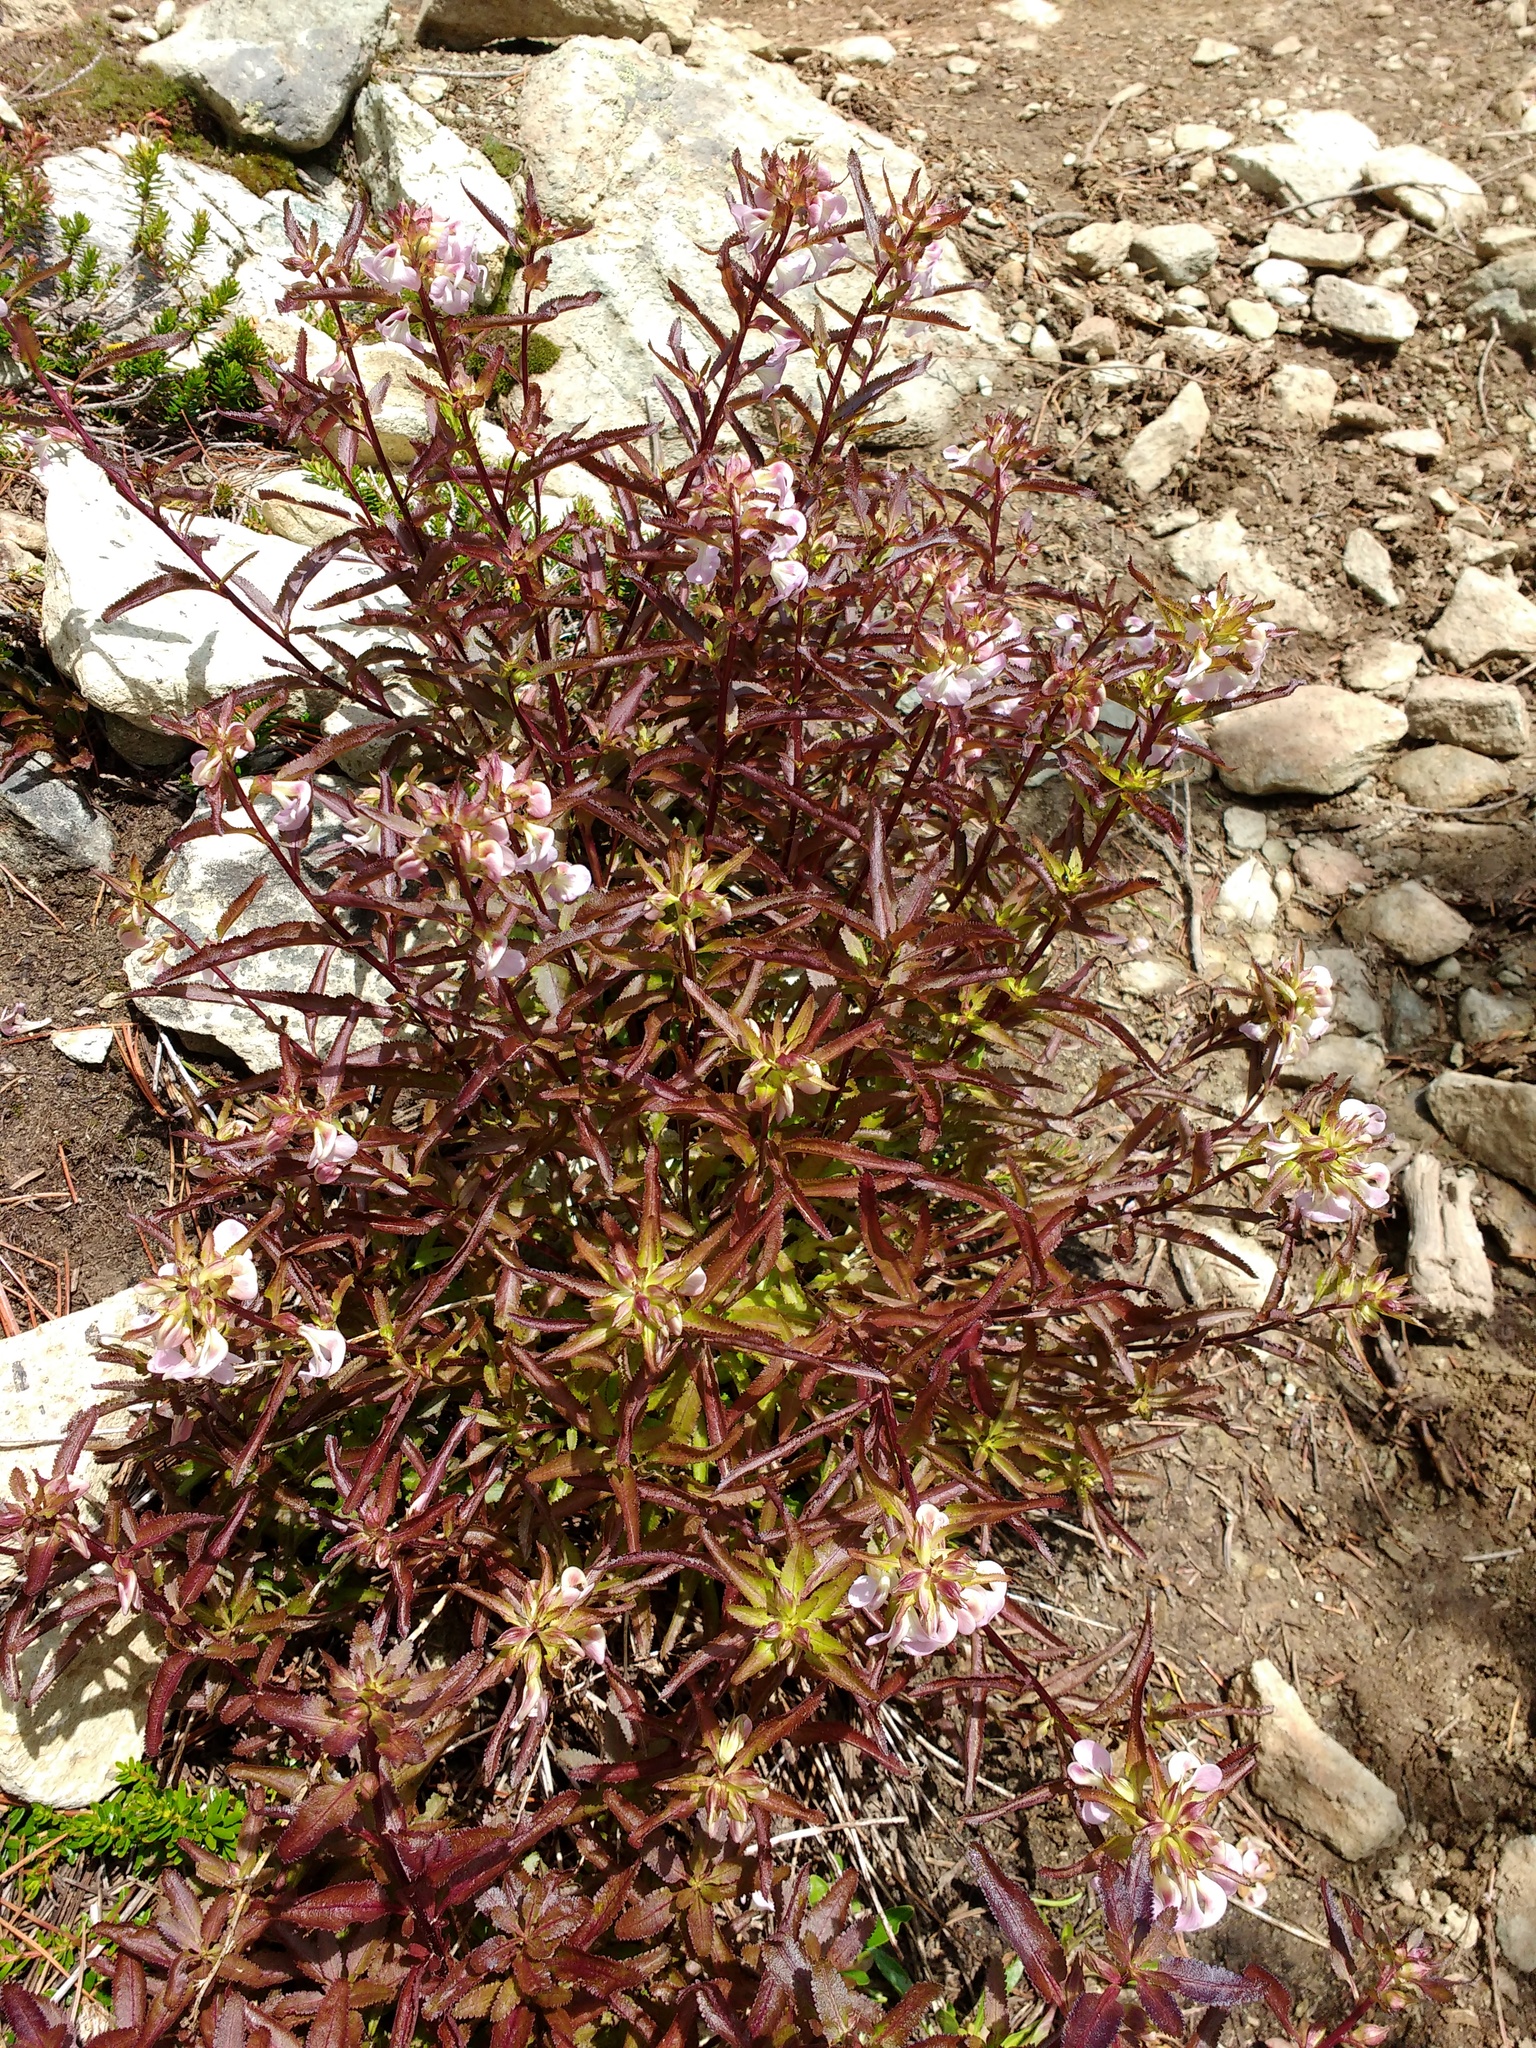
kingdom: Plantae
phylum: Tracheophyta
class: Magnoliopsida
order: Lamiales
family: Orobanchaceae
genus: Pedicularis
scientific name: Pedicularis racemosa
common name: Leafy lousewort
